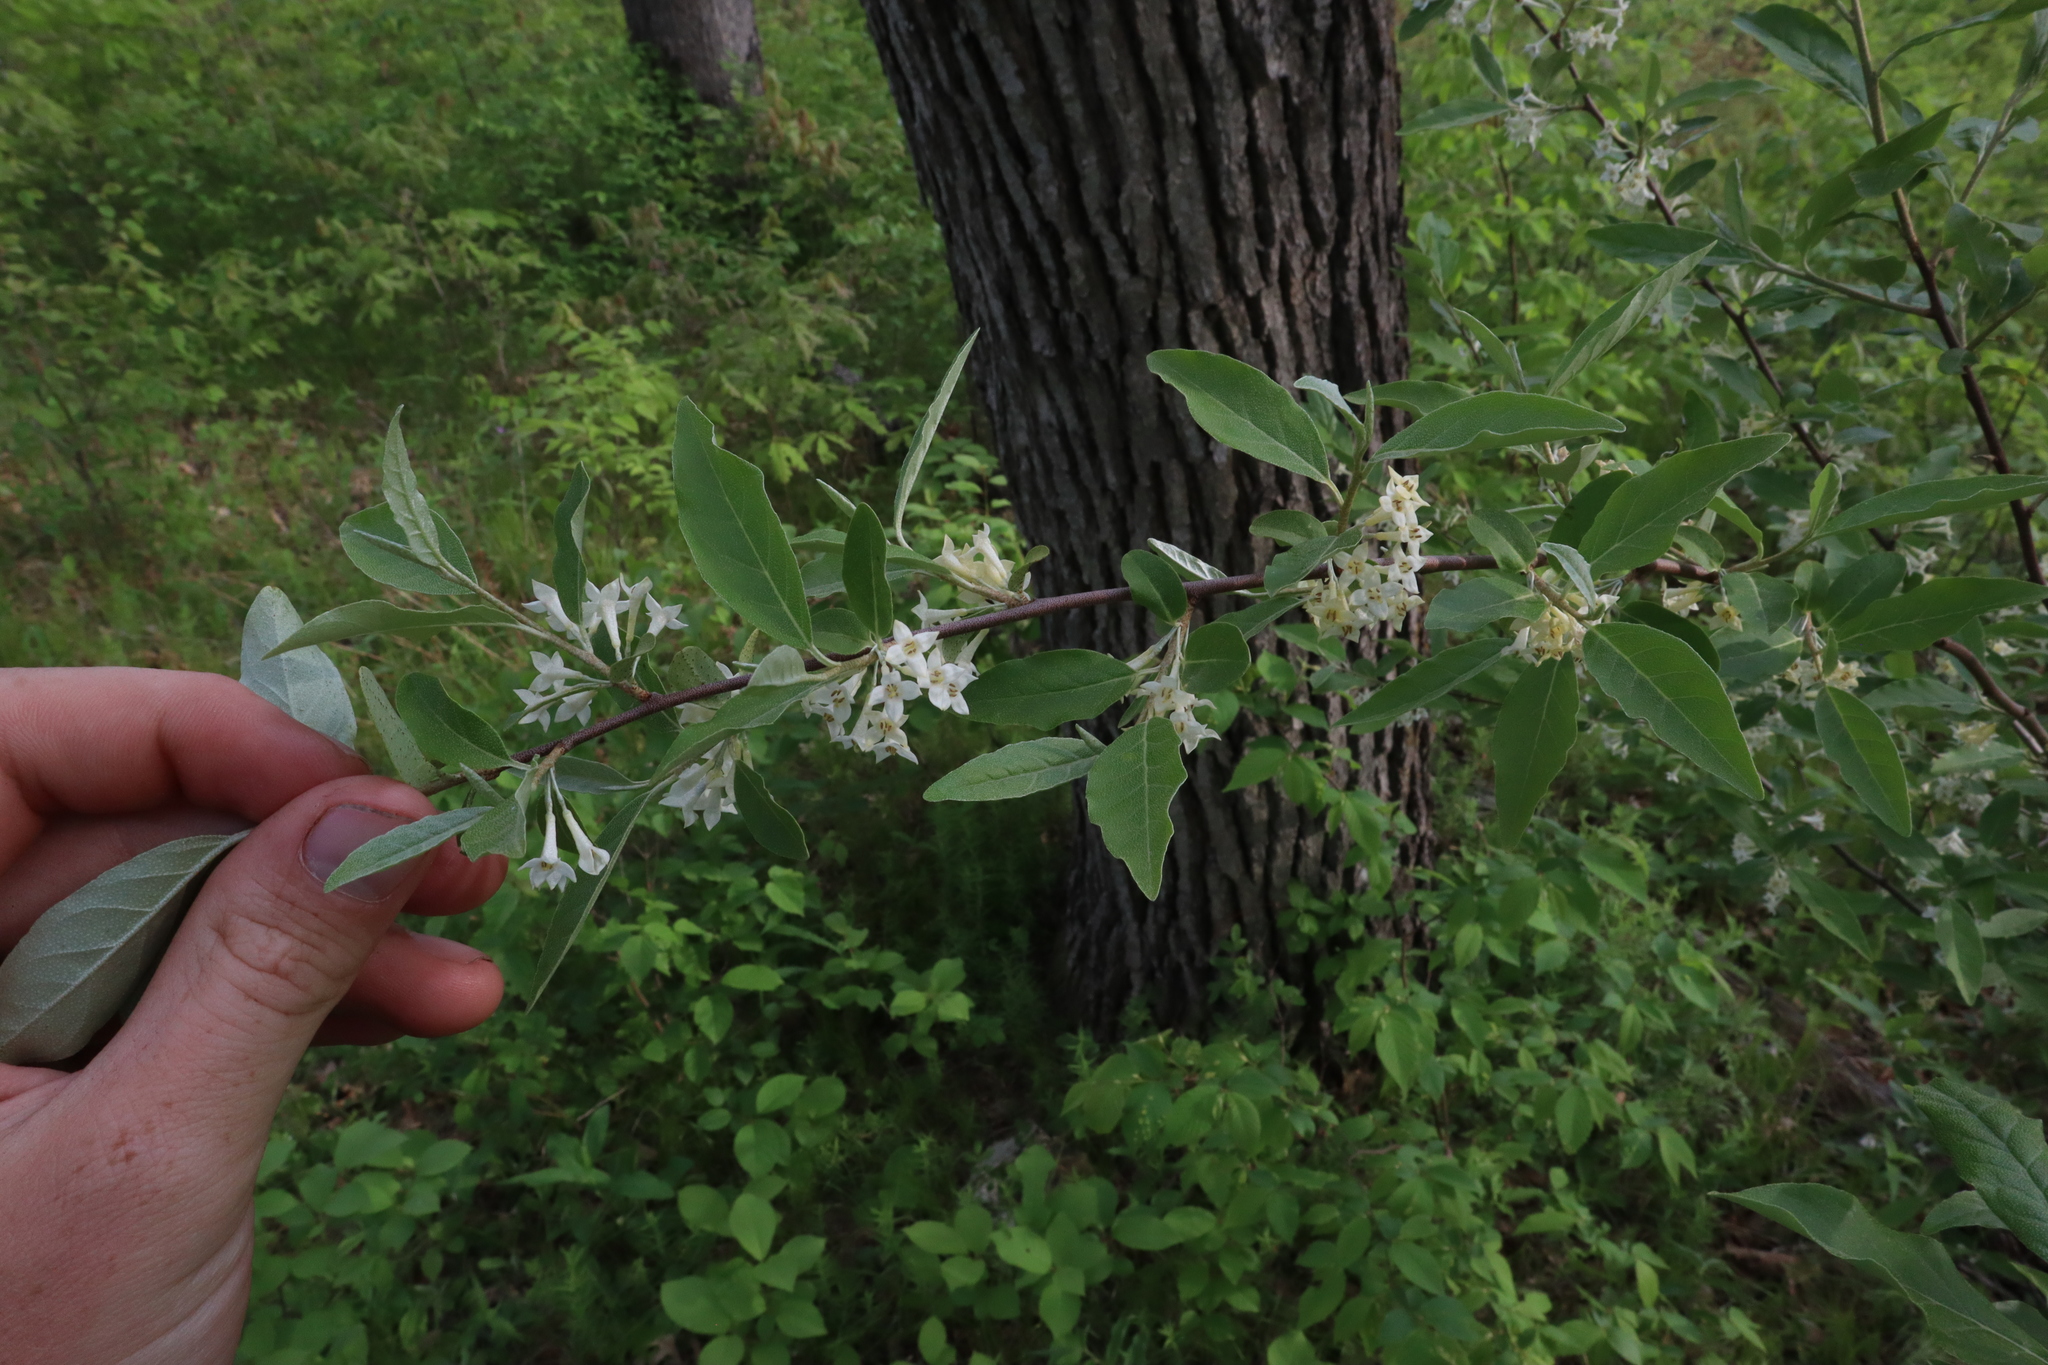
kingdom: Plantae
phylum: Tracheophyta
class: Magnoliopsida
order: Rosales
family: Elaeagnaceae
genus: Elaeagnus
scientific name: Elaeagnus umbellata
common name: Autumn olive
